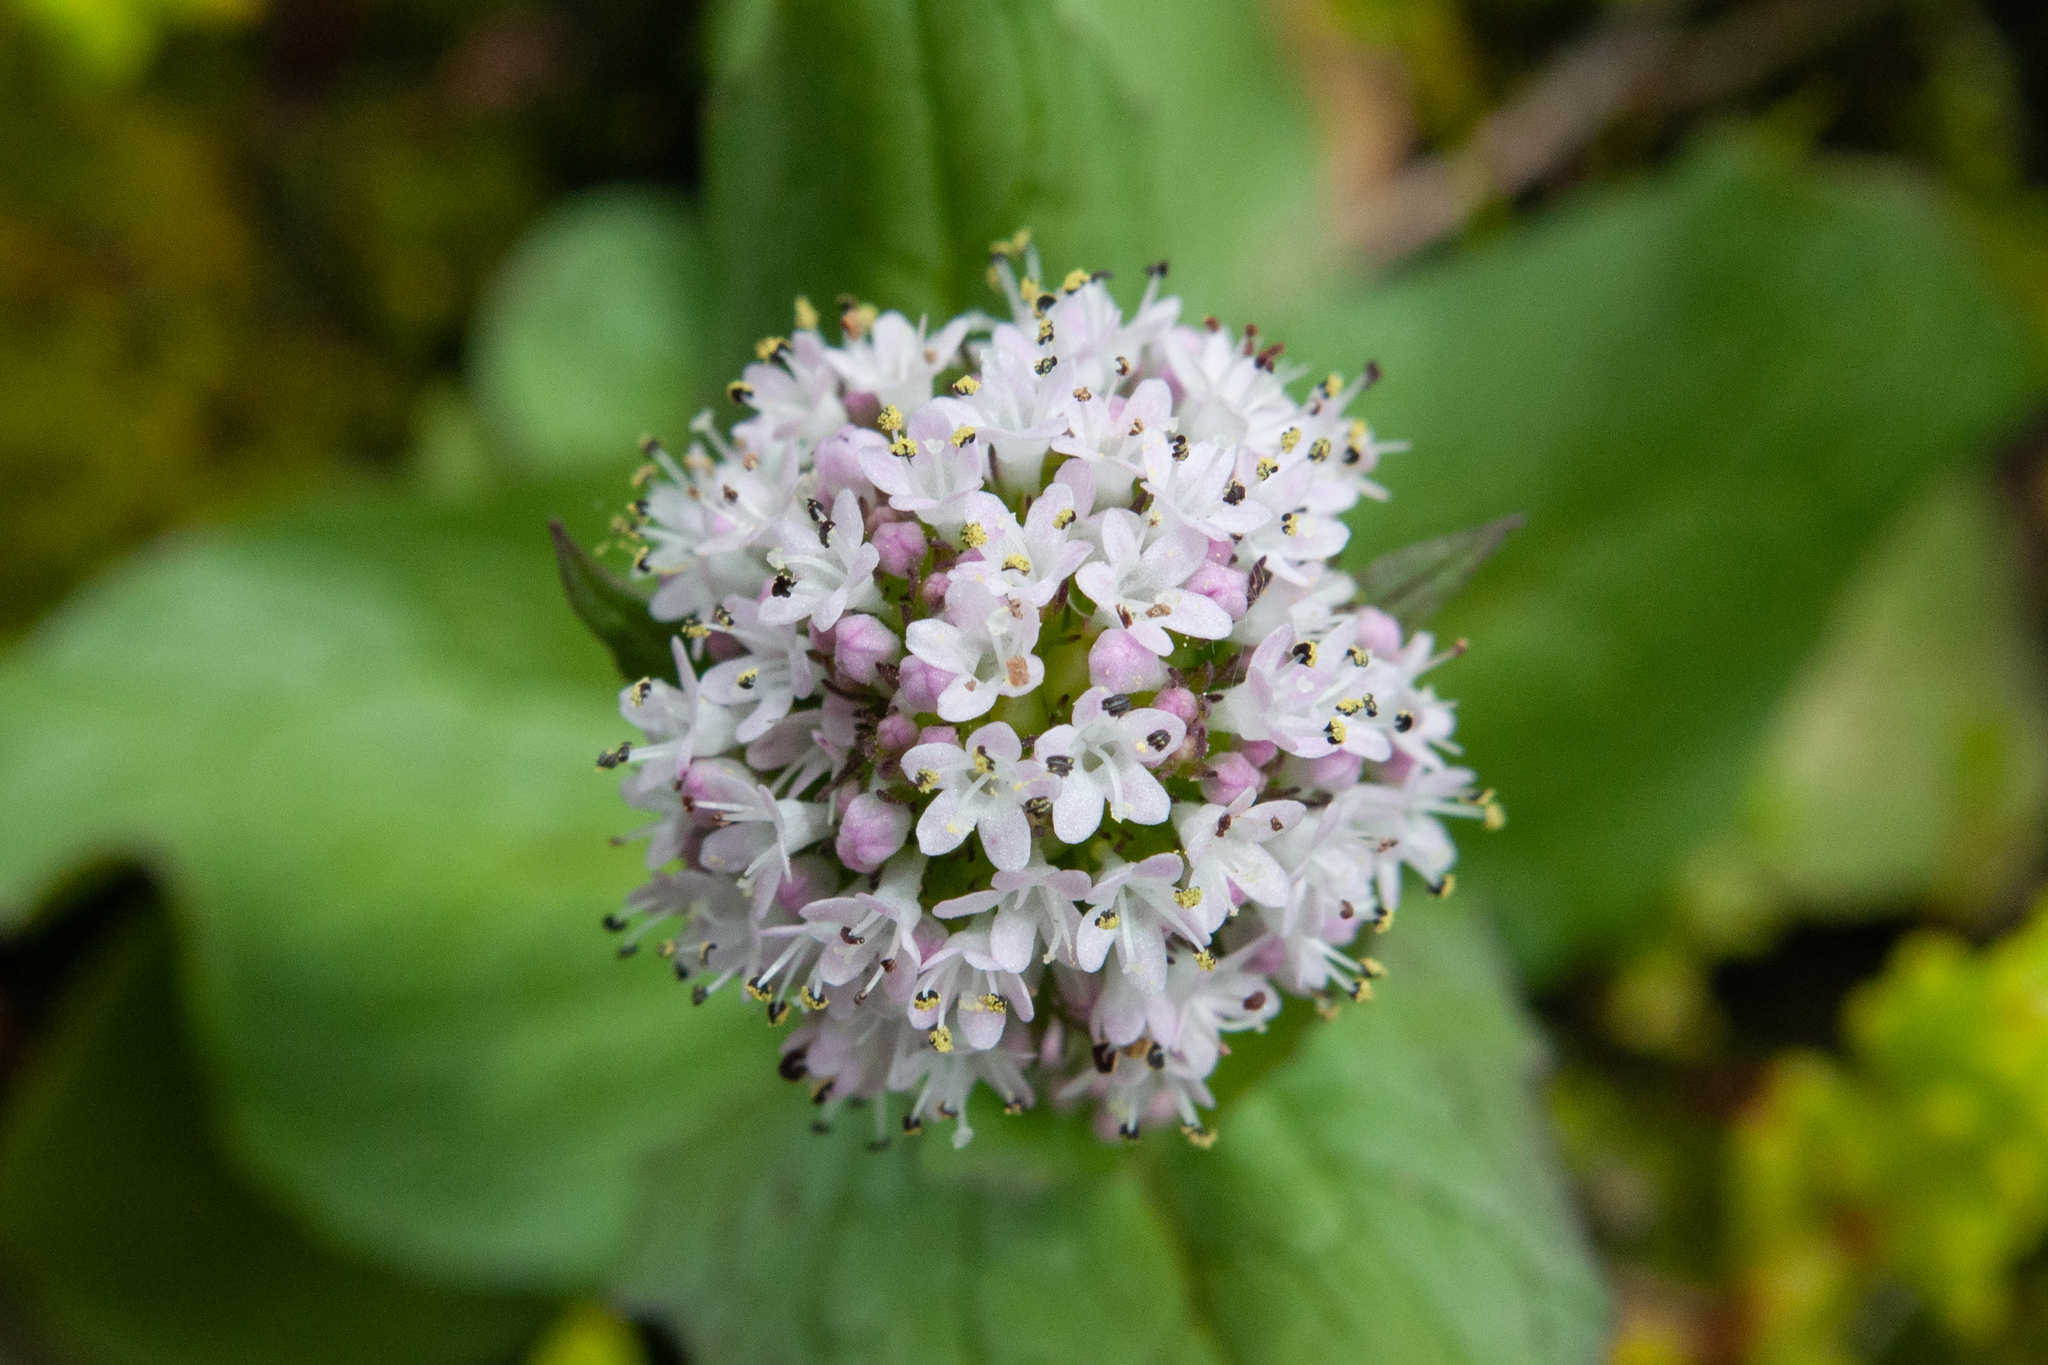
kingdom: Plantae
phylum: Tracheophyta
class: Magnoliopsida
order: Dipsacales
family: Caprifoliaceae
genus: Plectritis
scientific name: Plectritis macroptera
